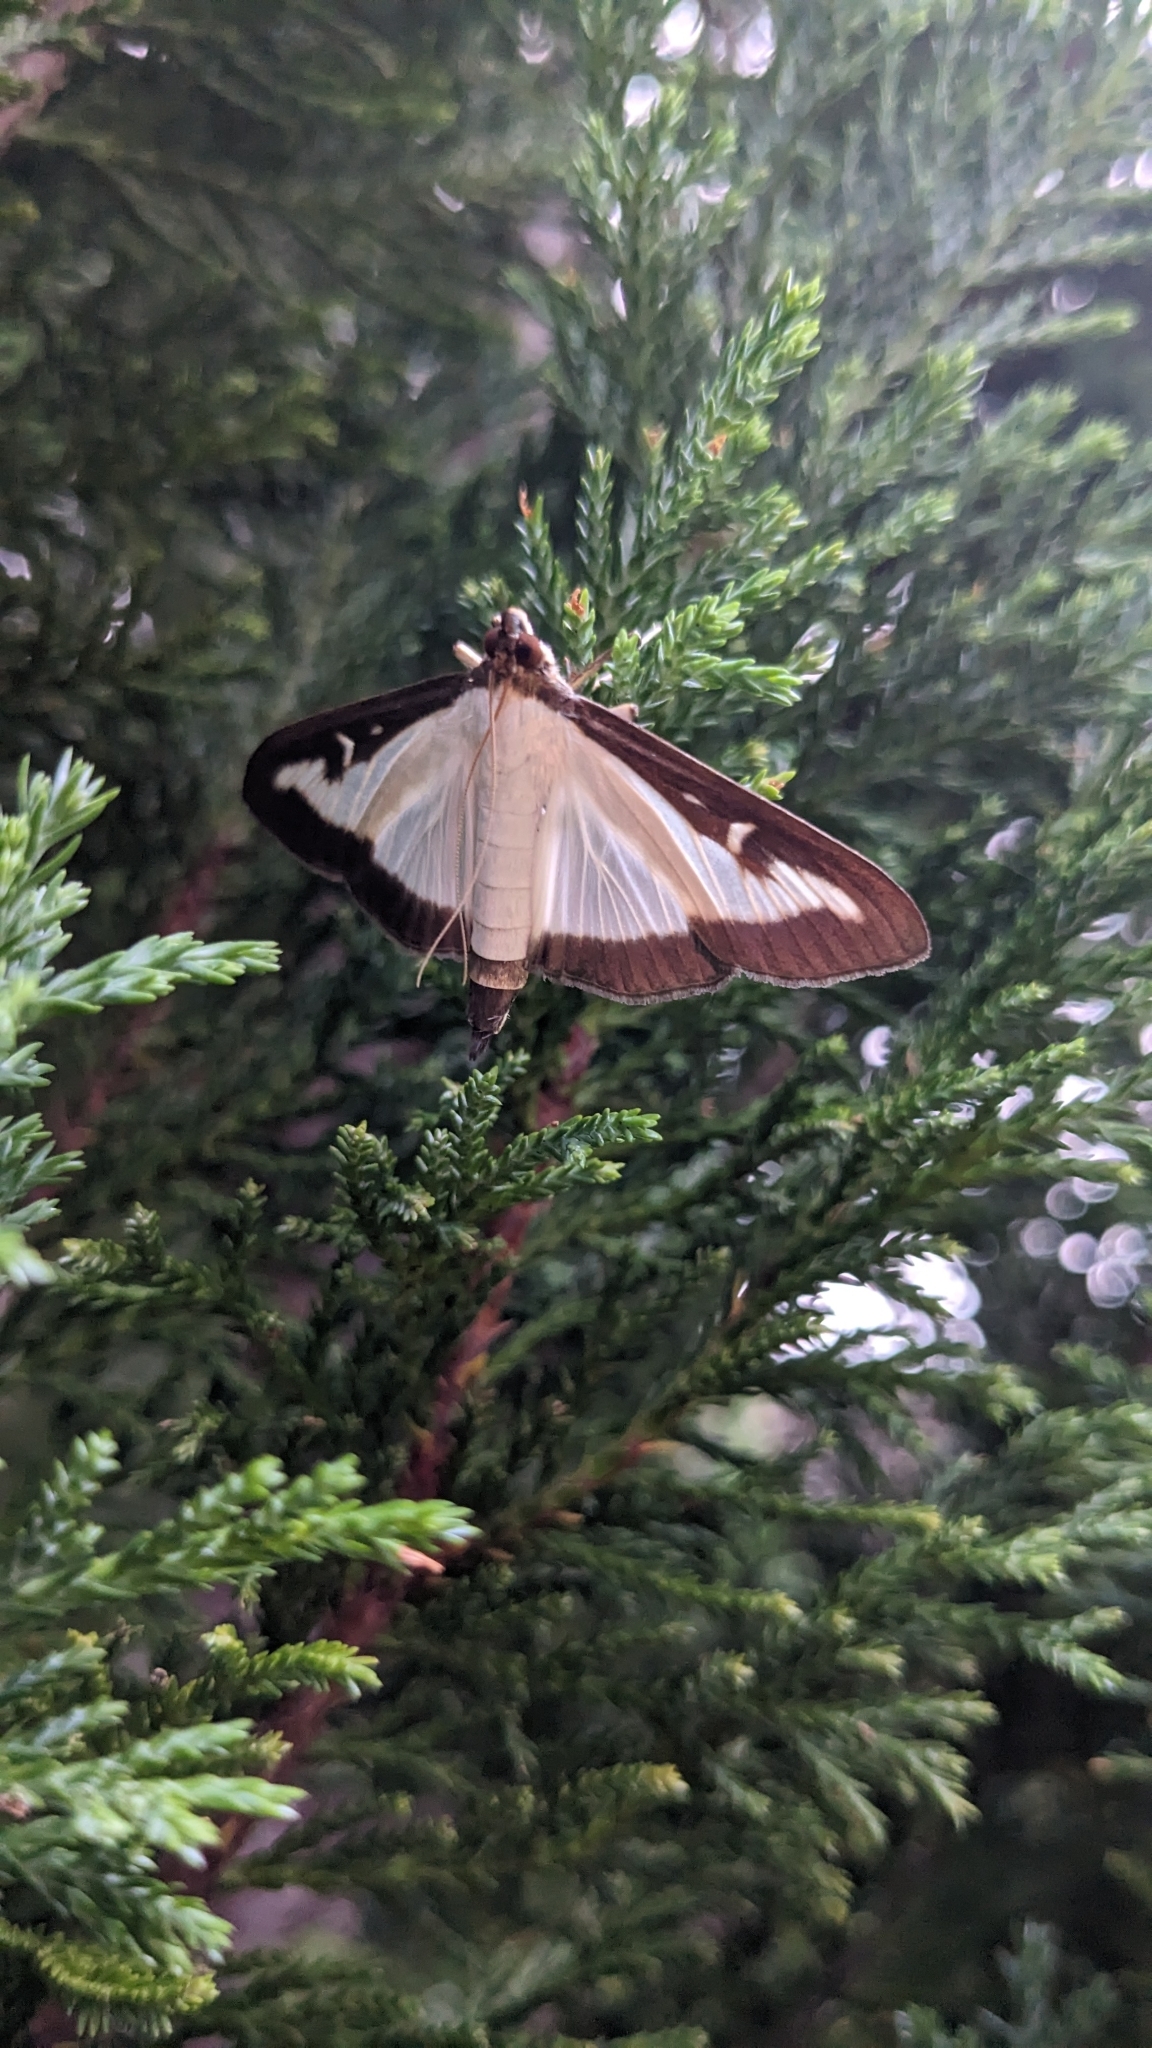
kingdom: Animalia
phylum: Arthropoda
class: Insecta
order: Lepidoptera
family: Crambidae
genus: Cydalima
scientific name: Cydalima perspectalis
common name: Box tree moth
